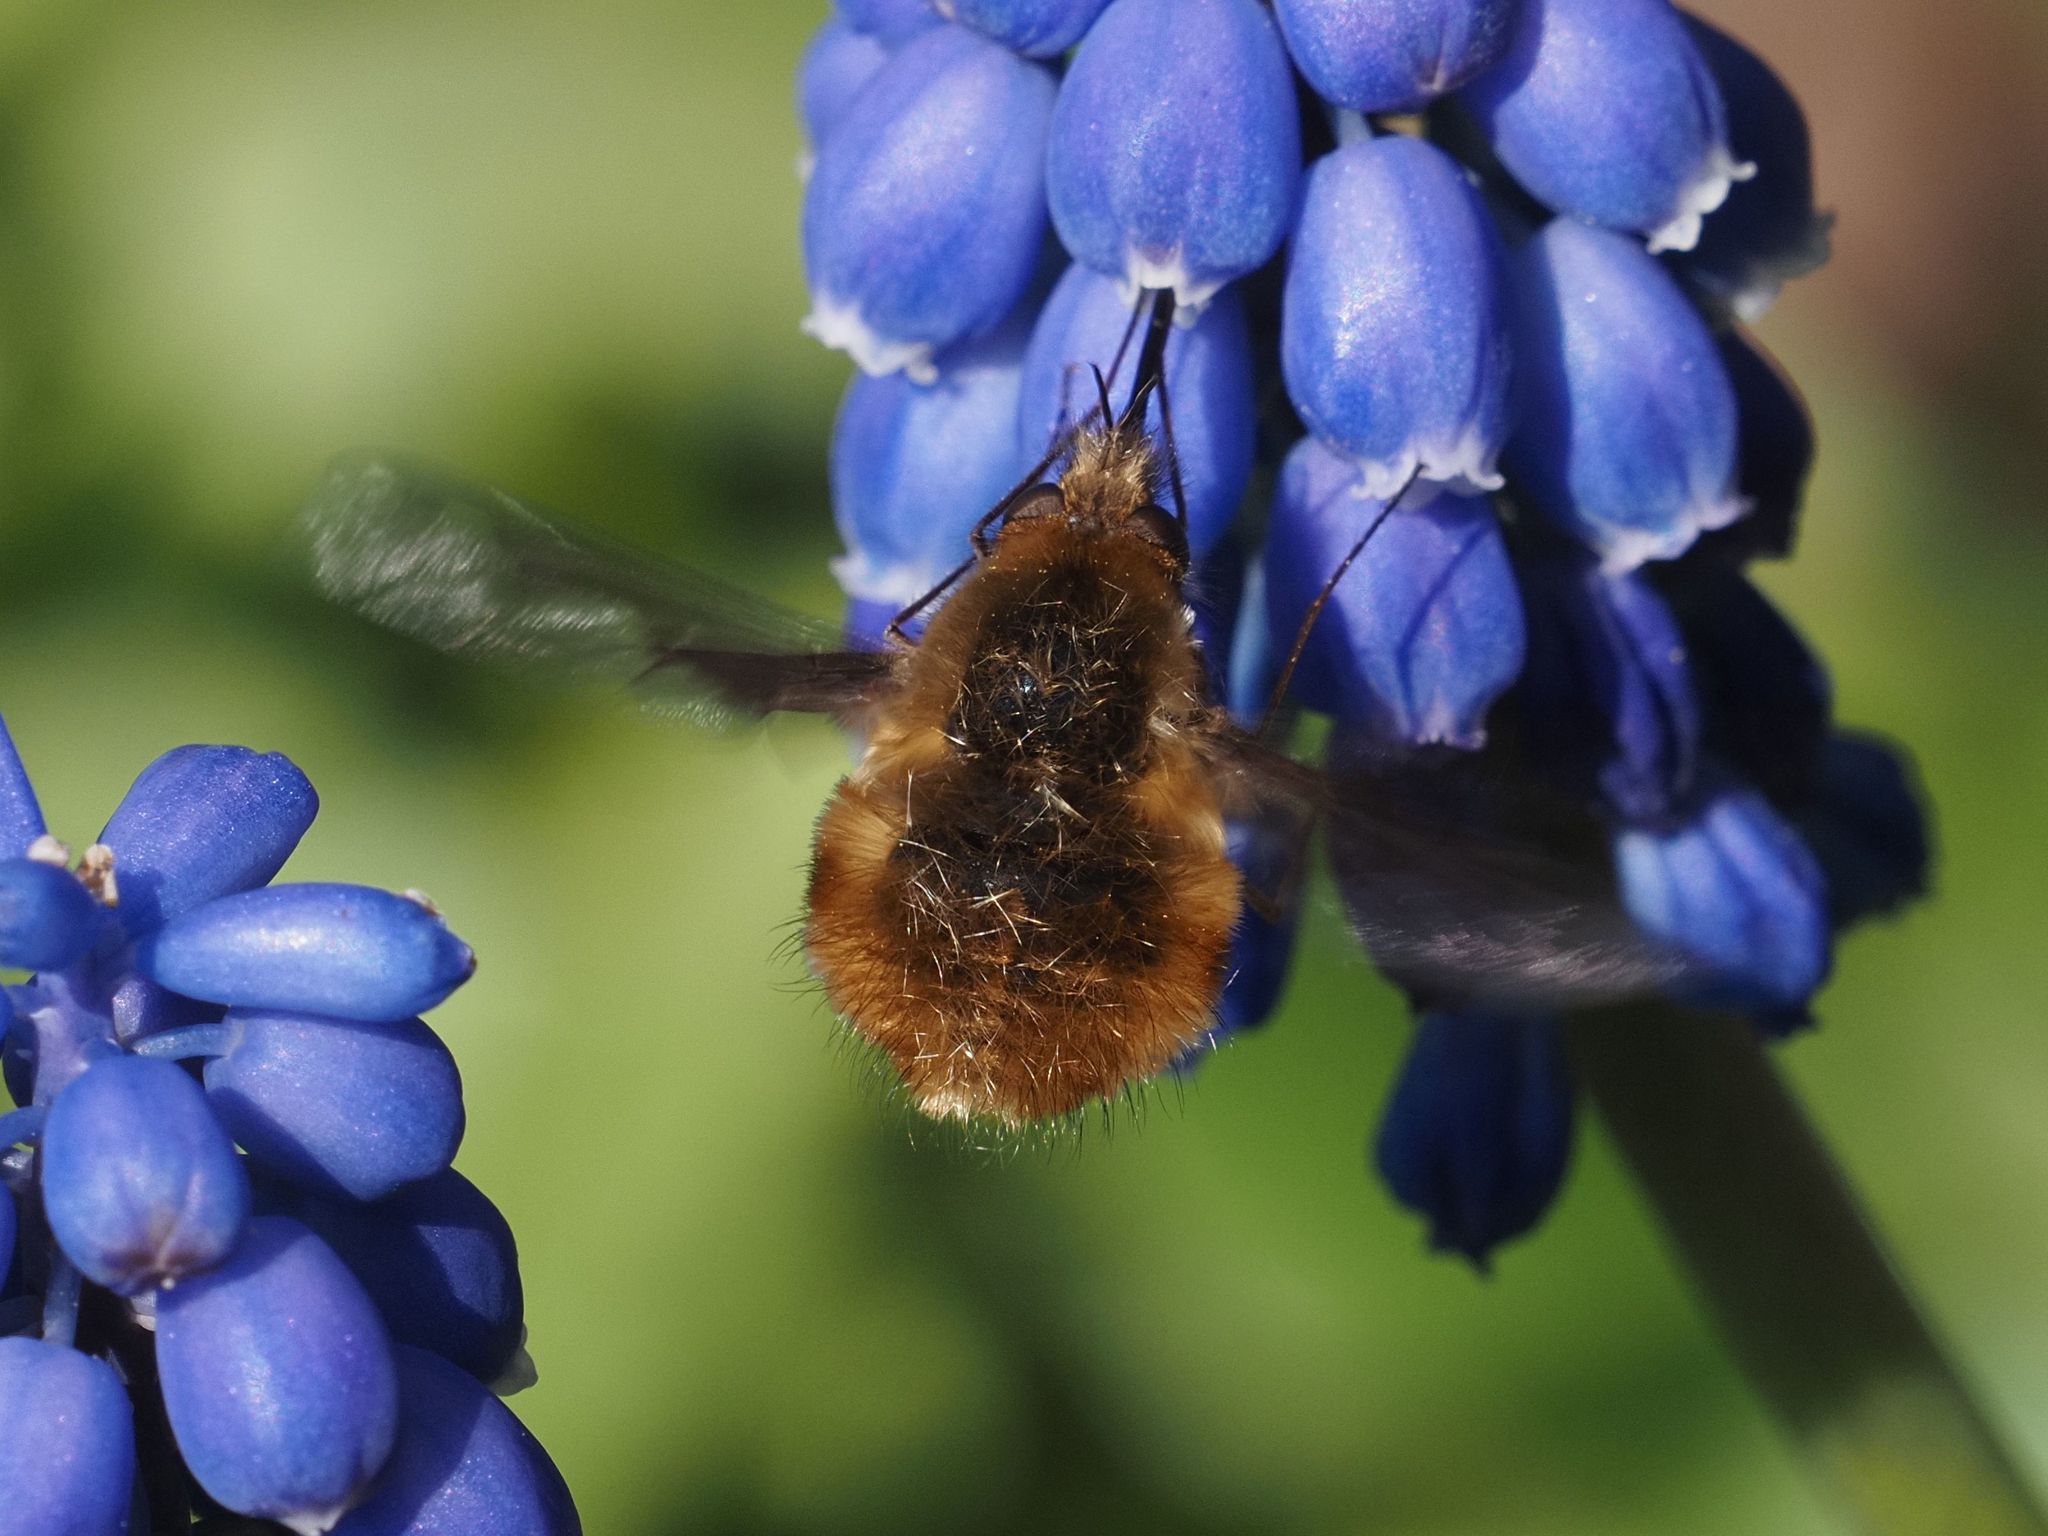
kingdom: Animalia
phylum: Arthropoda
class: Insecta
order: Diptera
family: Bombyliidae
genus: Bombylius
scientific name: Bombylius major
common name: Bee fly
